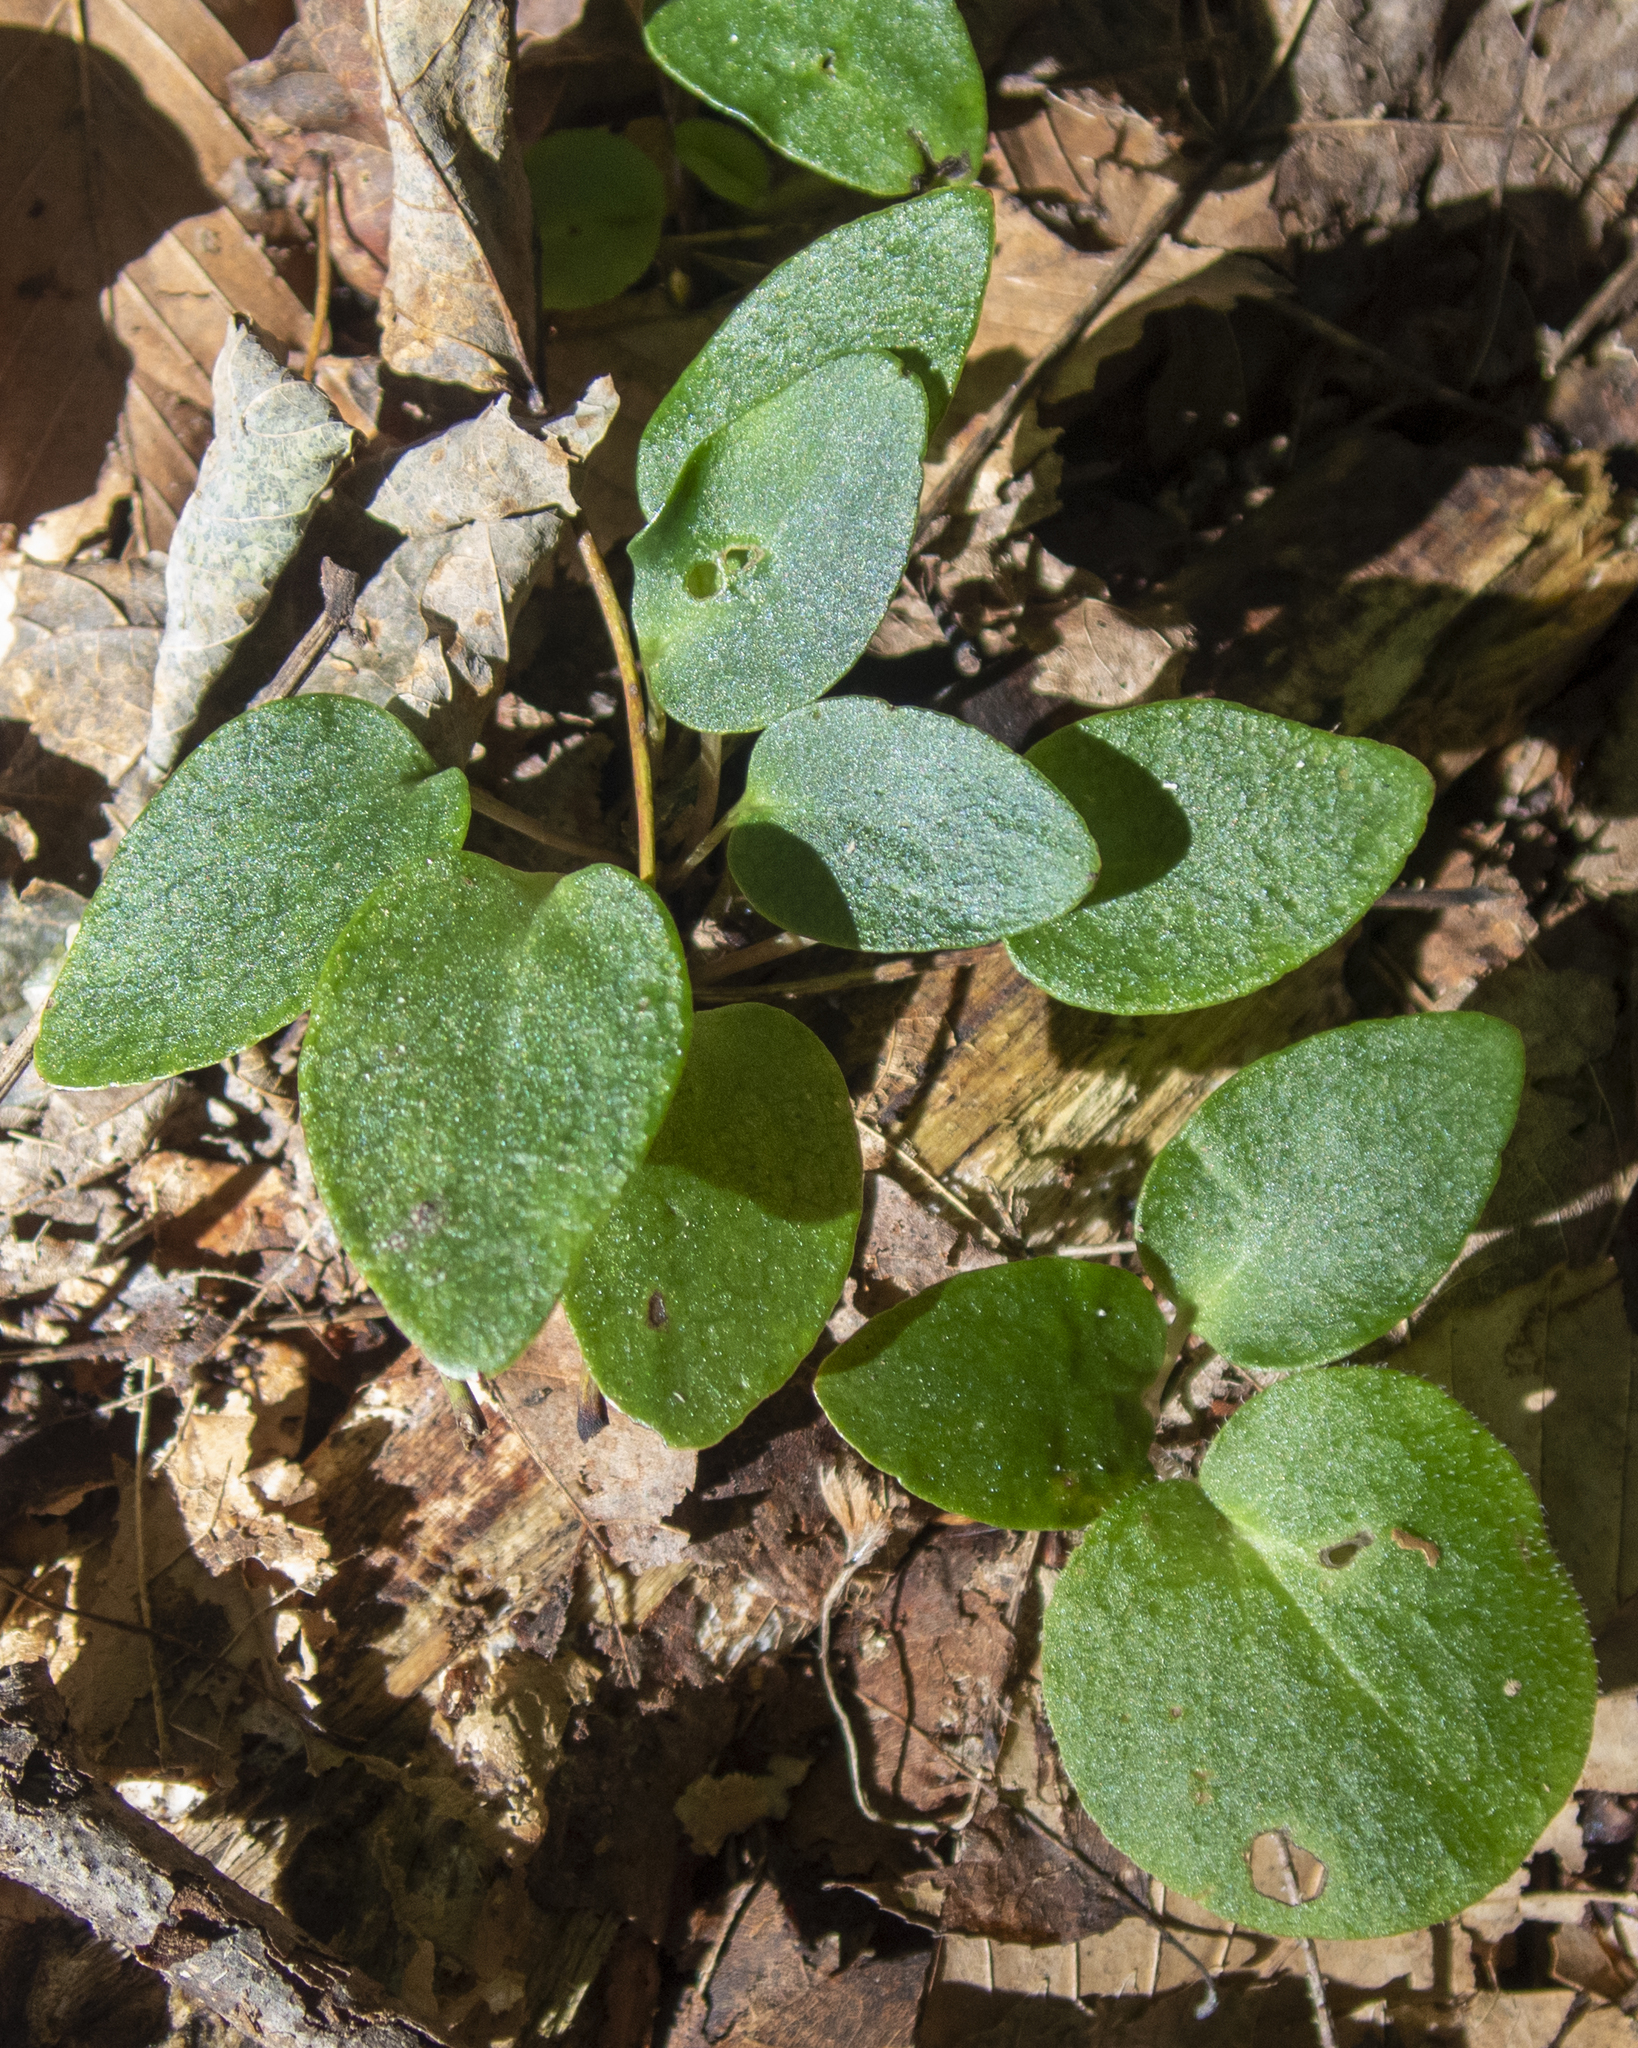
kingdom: Plantae
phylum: Tracheophyta
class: Magnoliopsida
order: Piperales
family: Aristolochiaceae
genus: Asarum
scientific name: Asarum canadense
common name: Wild ginger
